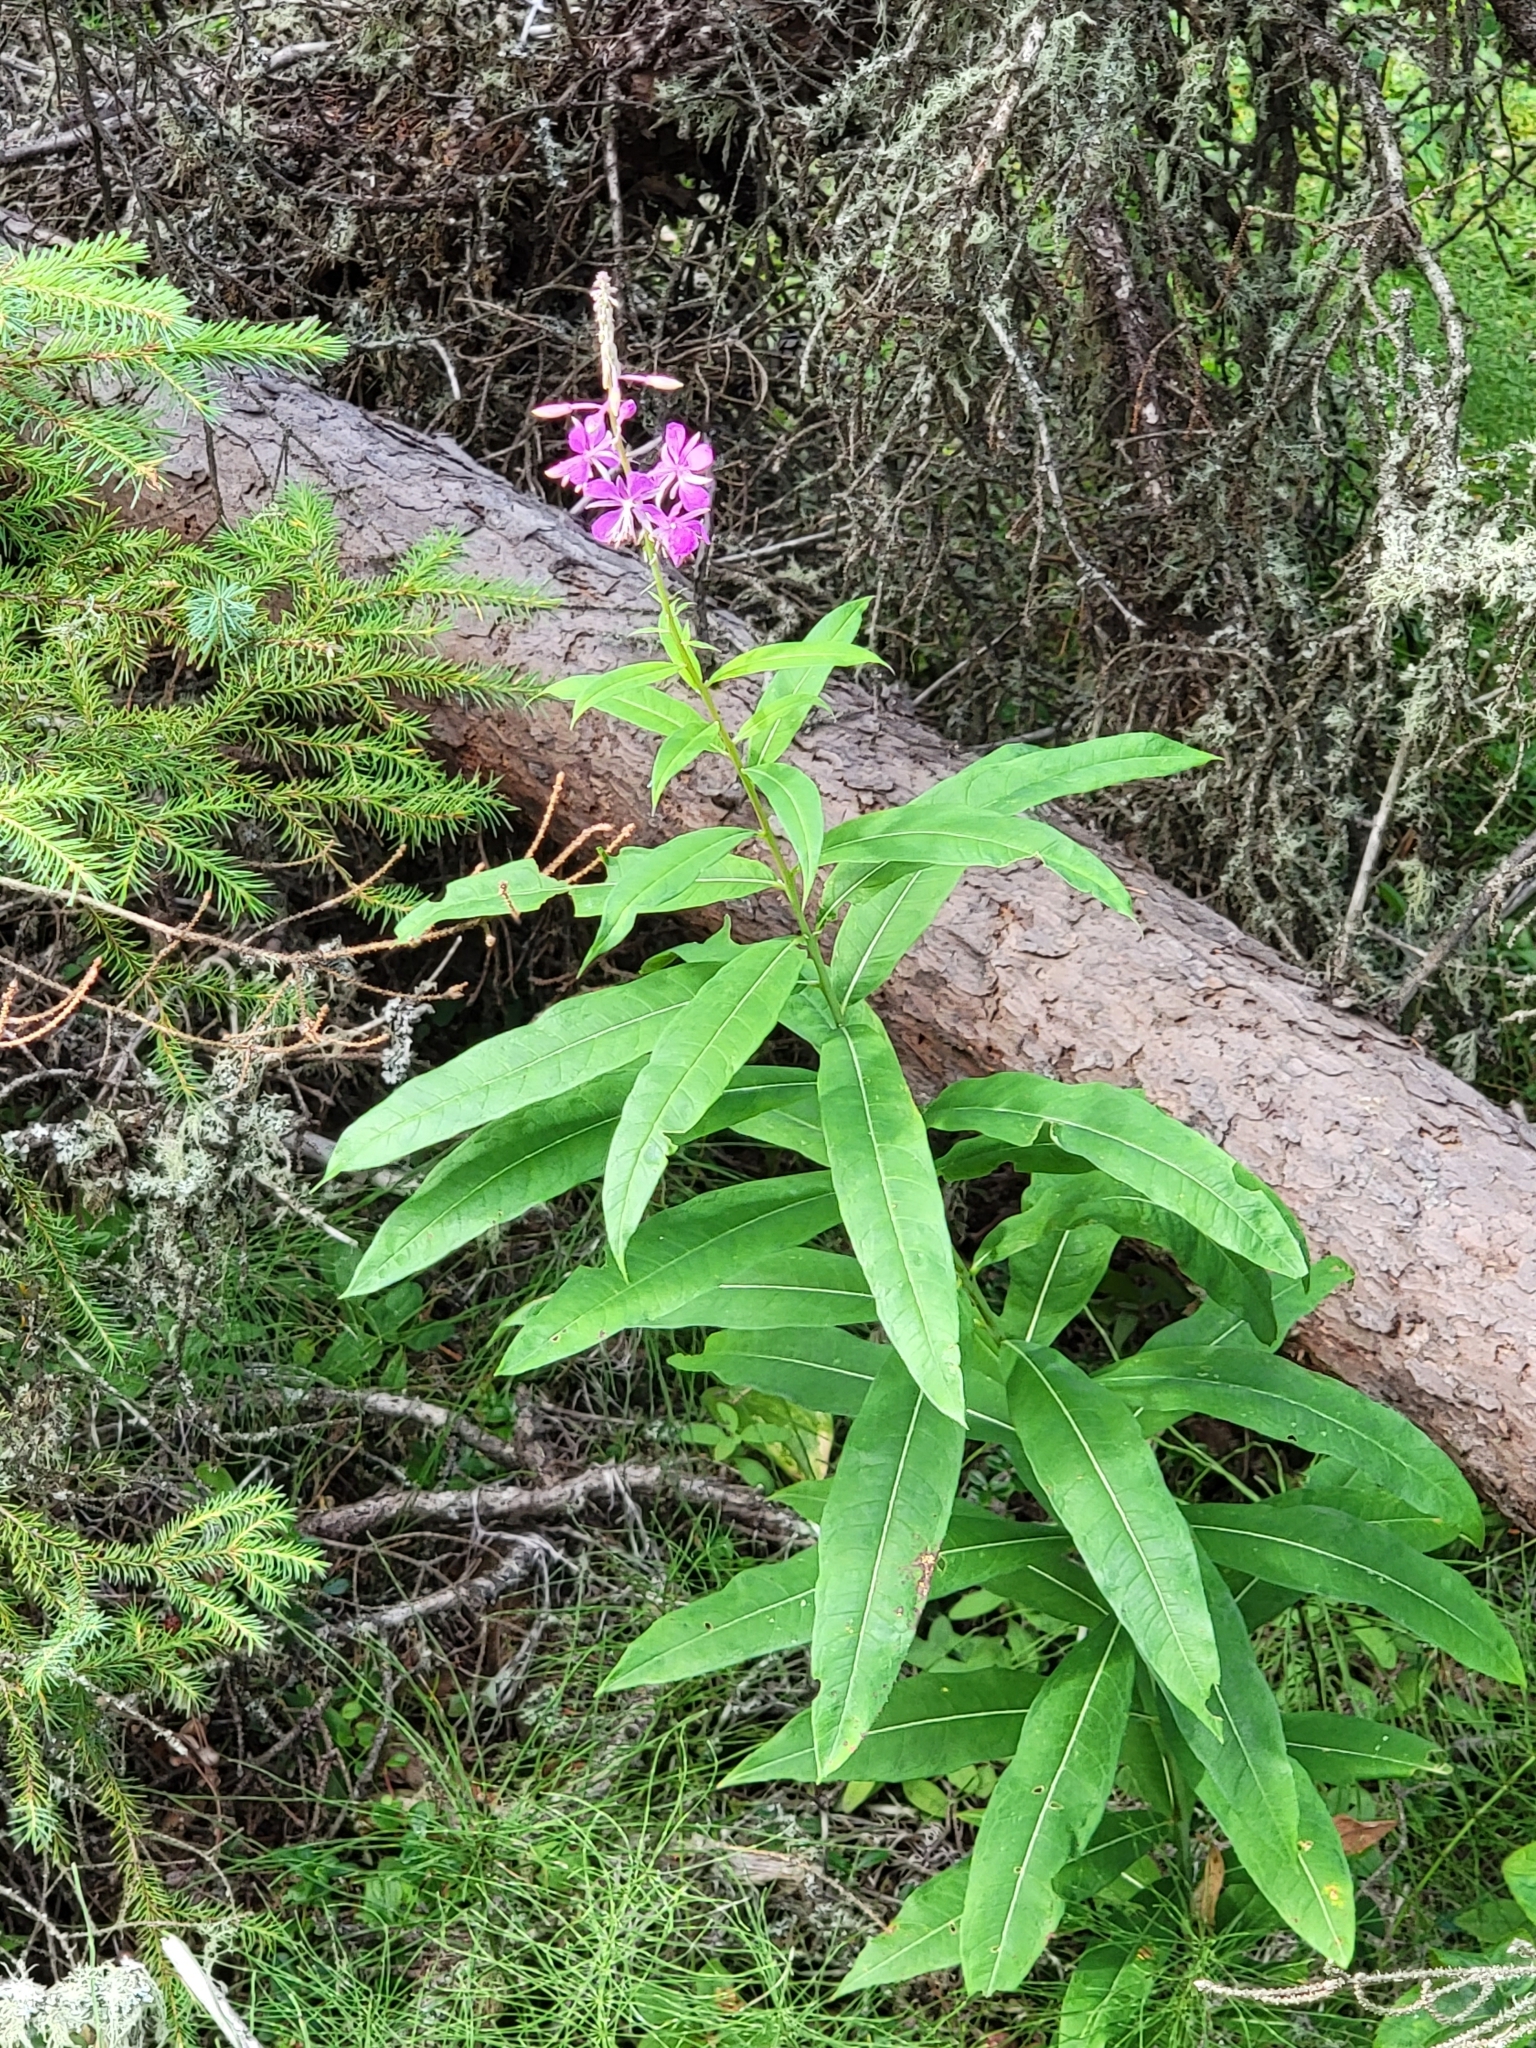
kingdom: Plantae
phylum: Tracheophyta
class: Magnoliopsida
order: Myrtales
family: Onagraceae
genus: Chamaenerion
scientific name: Chamaenerion angustifolium
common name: Fireweed
